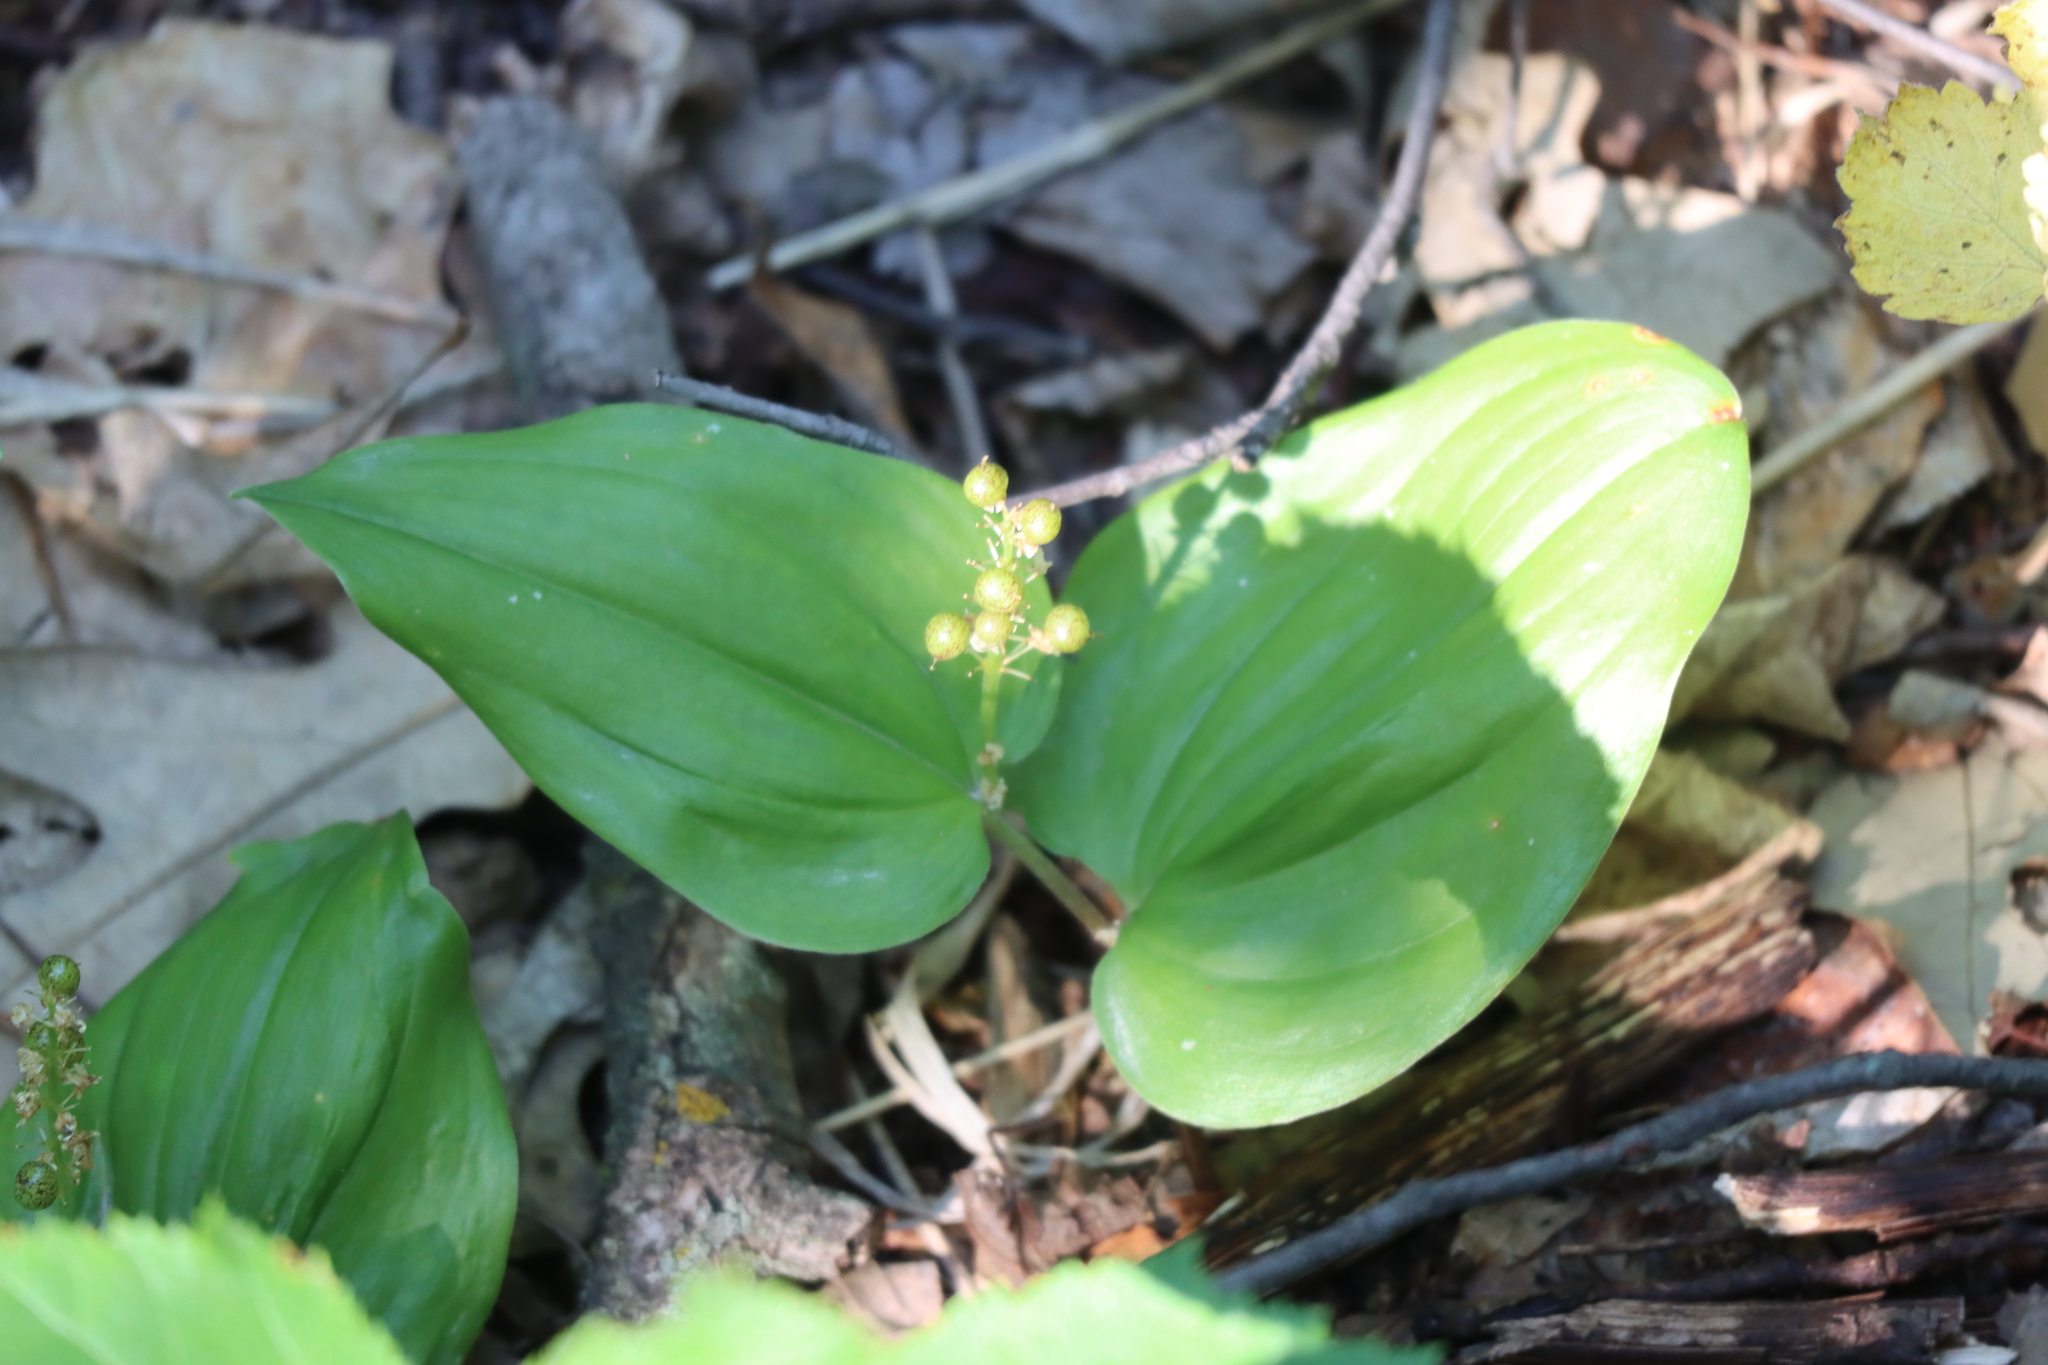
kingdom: Plantae
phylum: Tracheophyta
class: Liliopsida
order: Asparagales
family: Asparagaceae
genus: Maianthemum
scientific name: Maianthemum canadense
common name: False lily-of-the-valley
